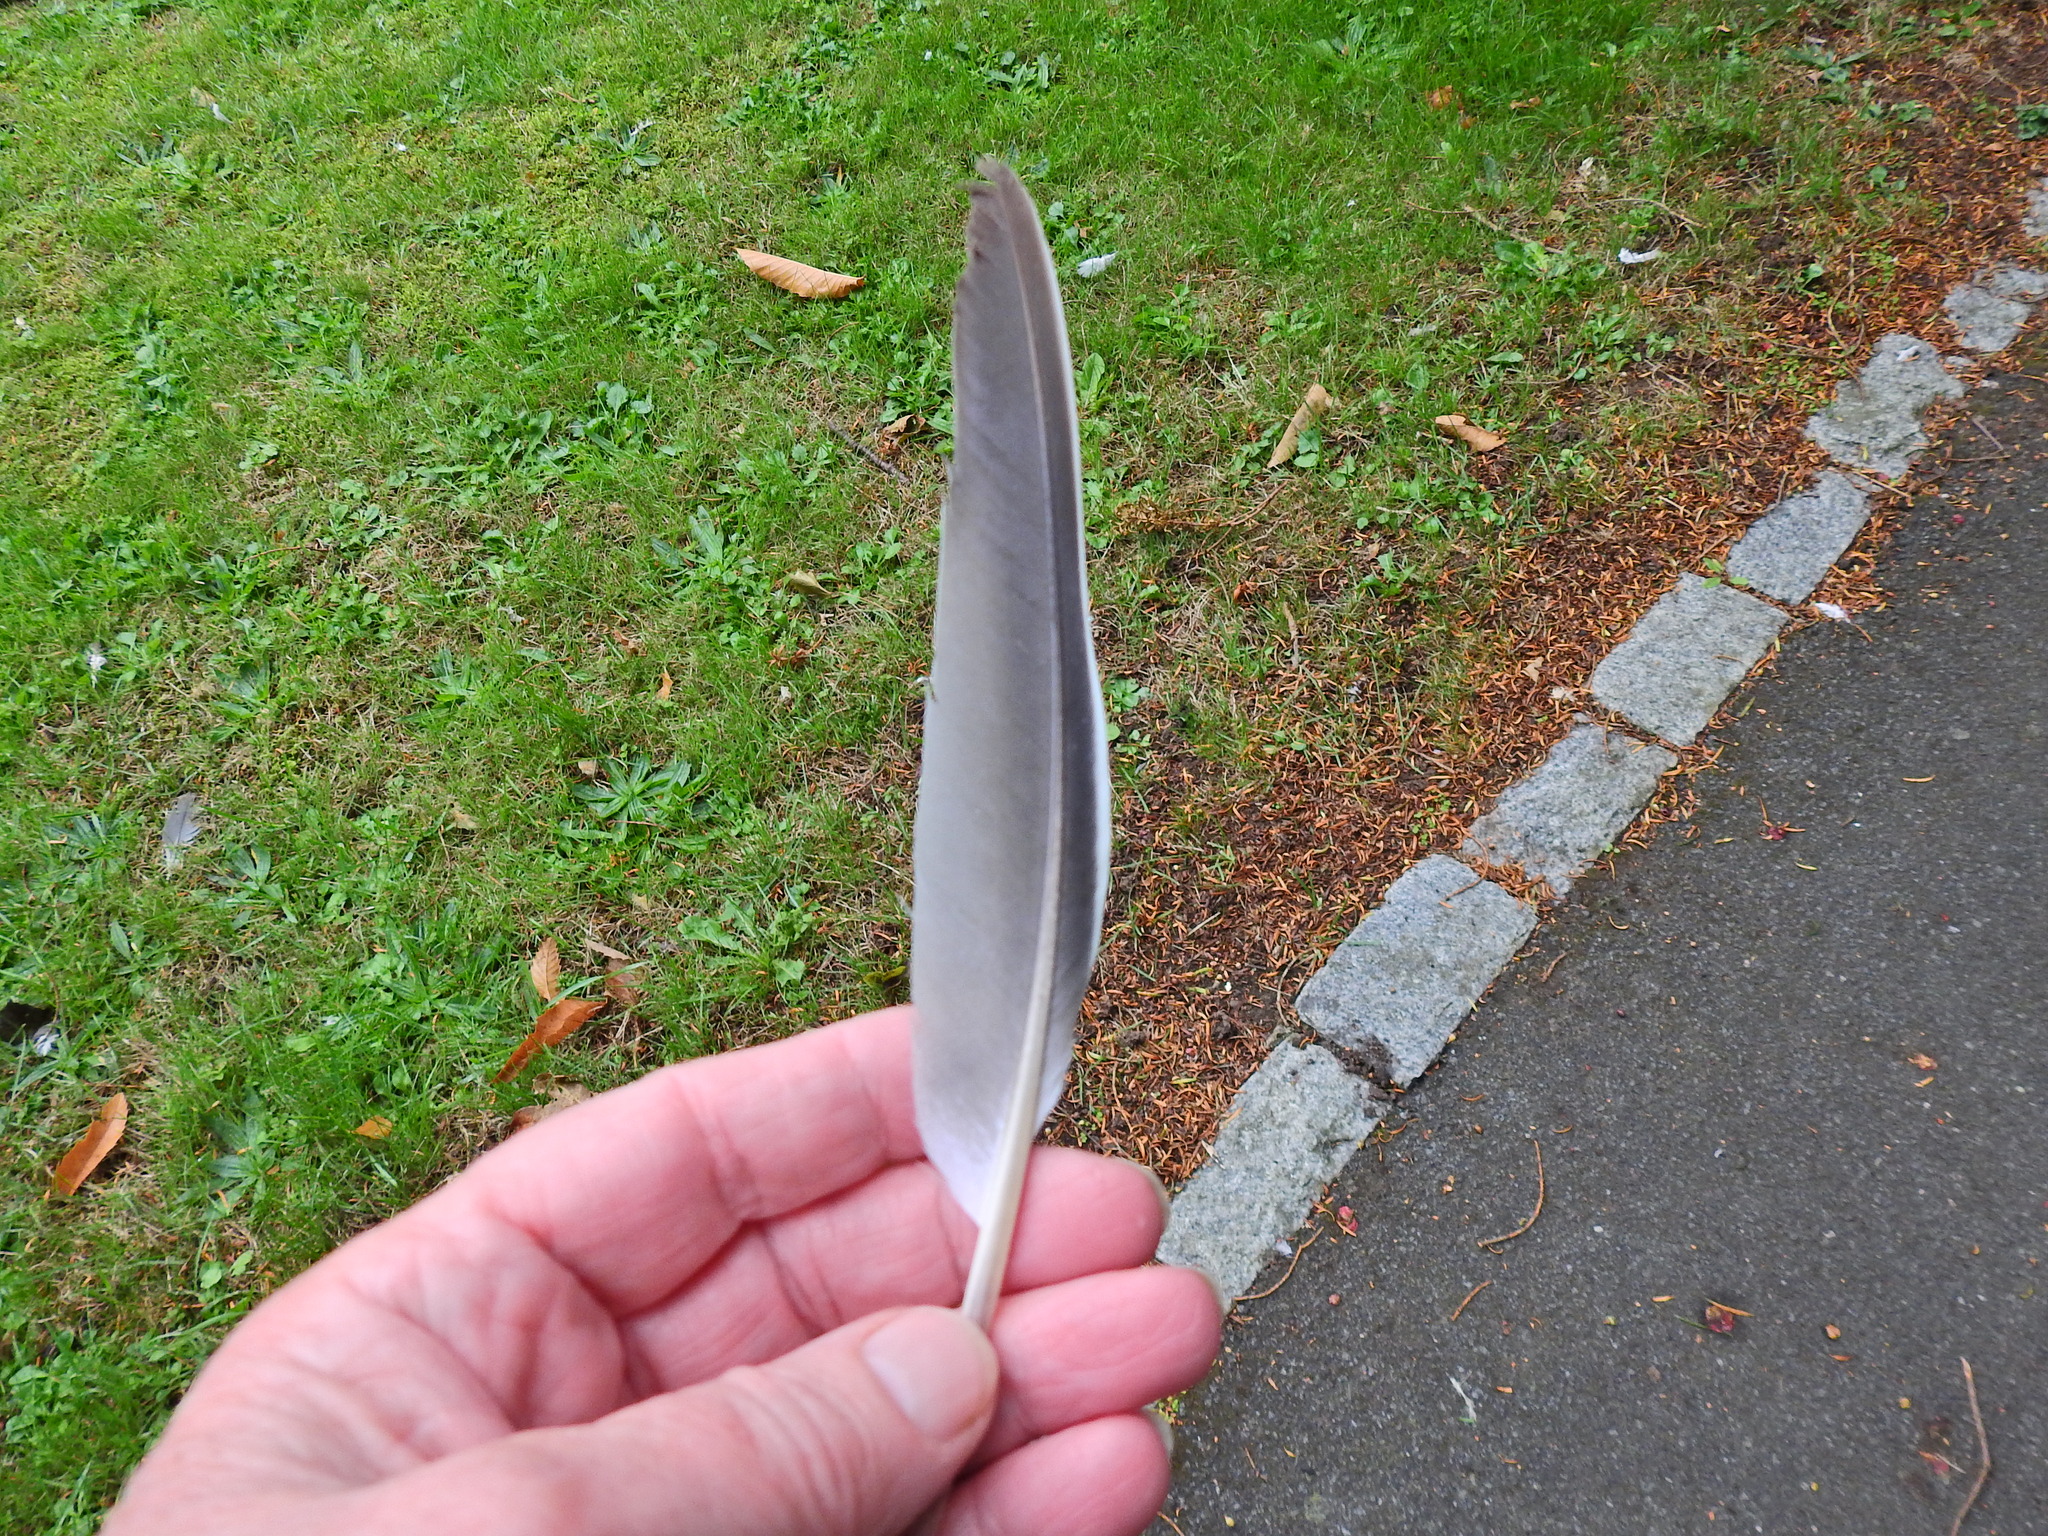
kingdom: Animalia
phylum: Chordata
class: Aves
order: Columbiformes
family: Columbidae
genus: Columba
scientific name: Columba palumbus
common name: Common wood pigeon
